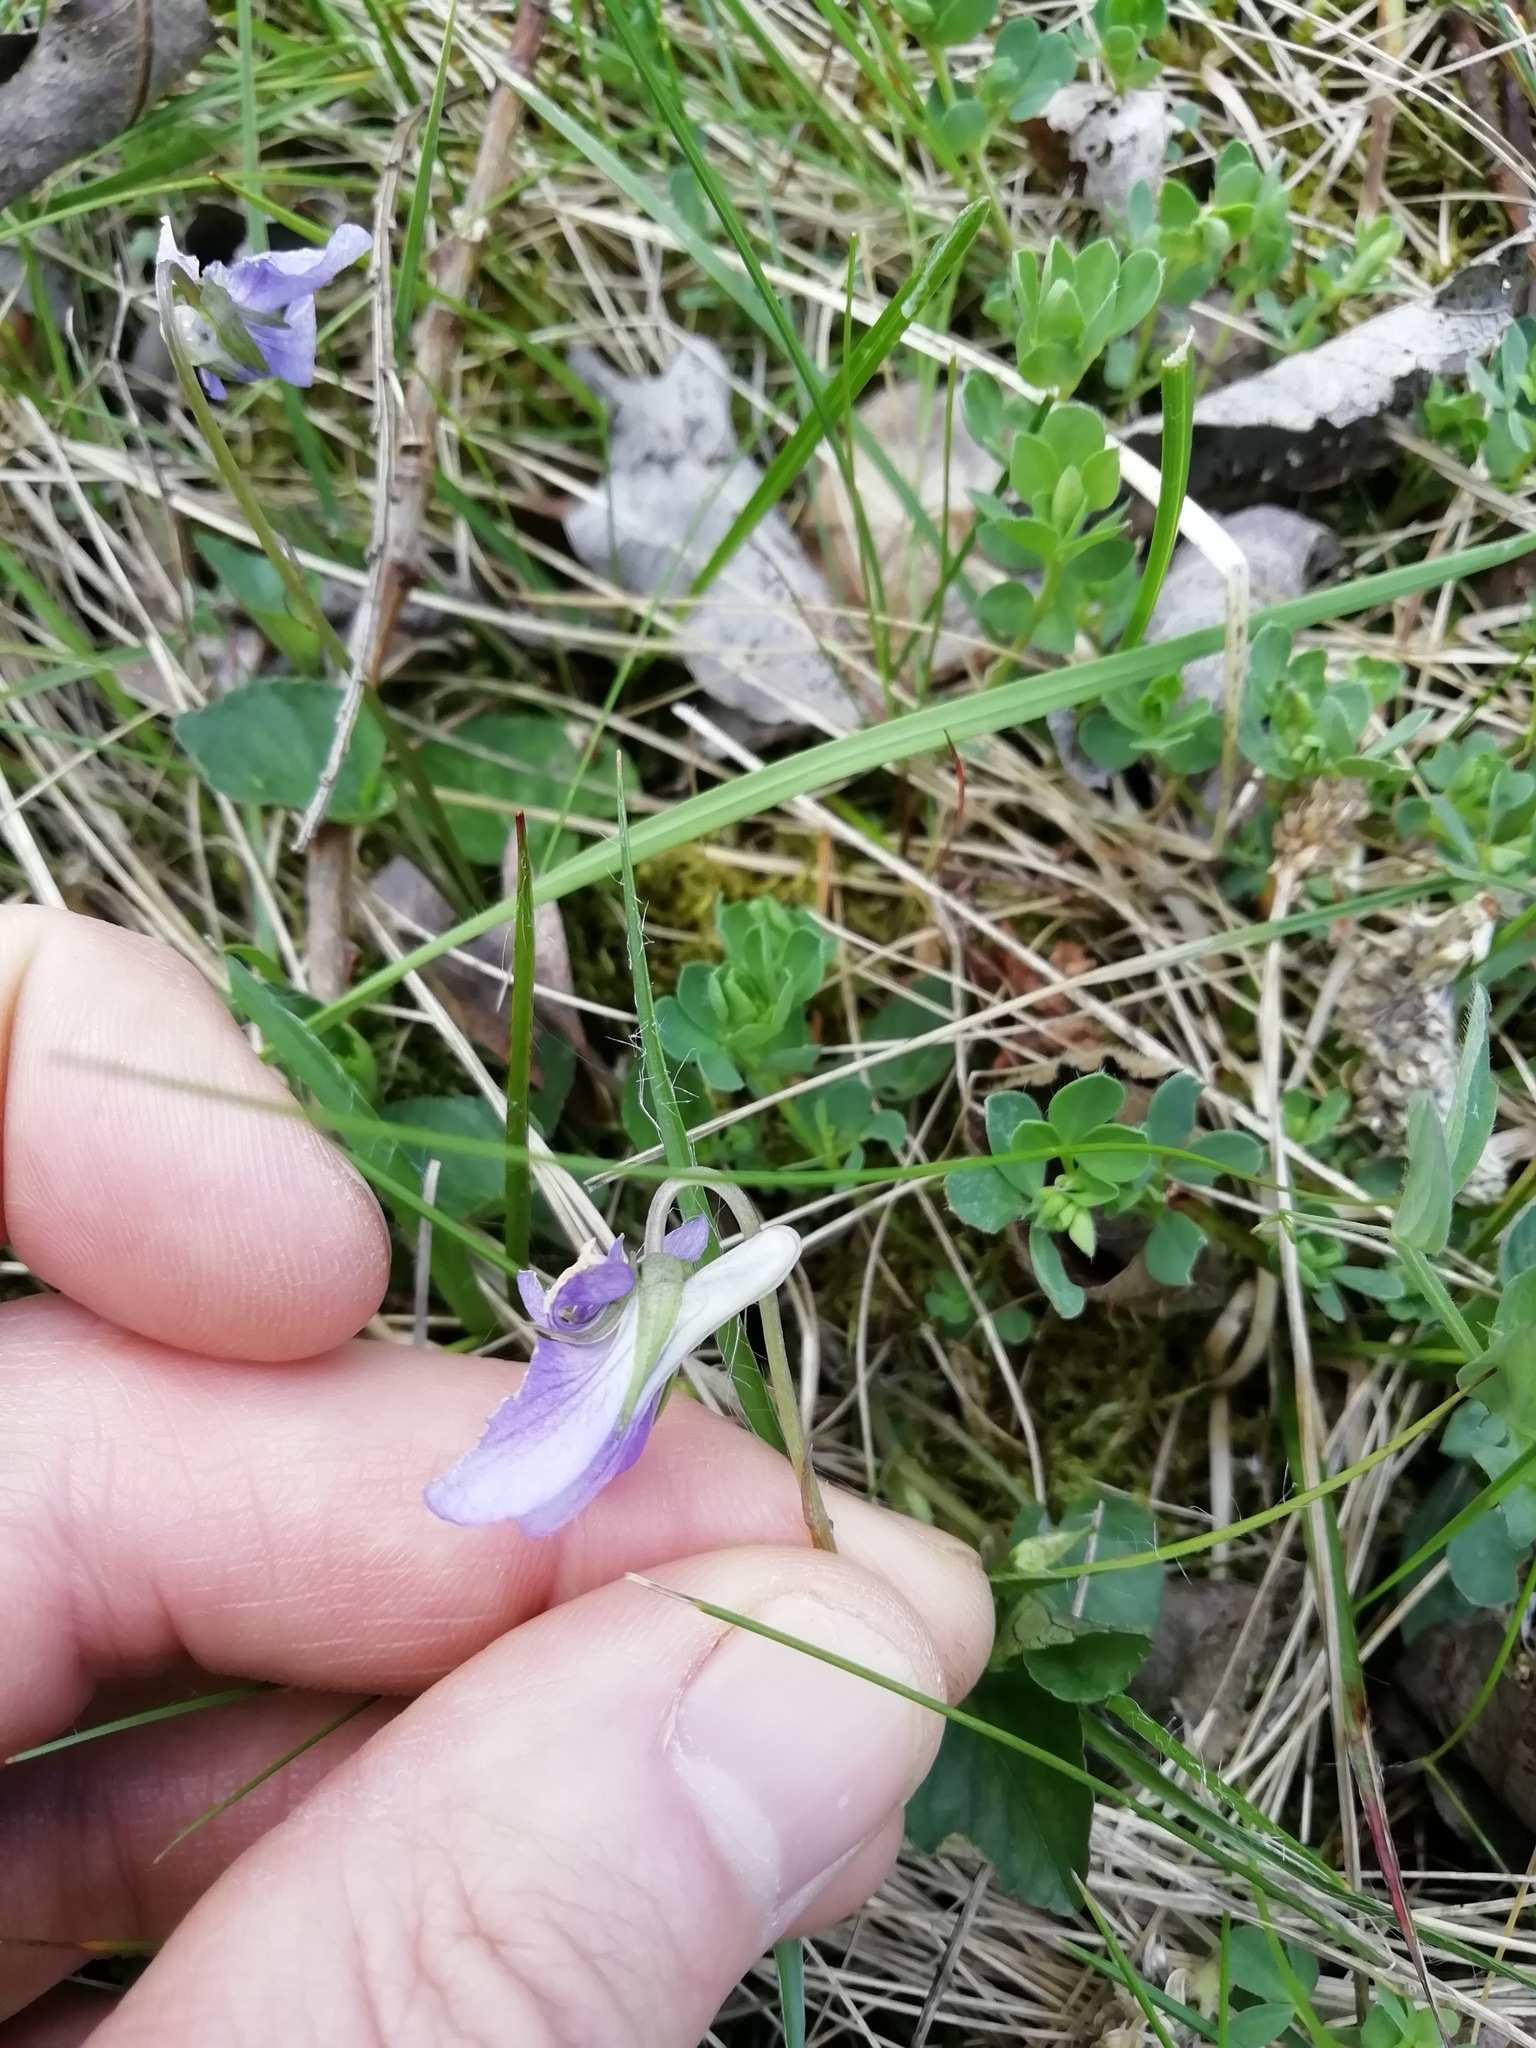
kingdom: Plantae
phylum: Tracheophyta
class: Magnoliopsida
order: Malpighiales
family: Violaceae
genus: Viola
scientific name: Viola riviniana
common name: Common dog-violet
